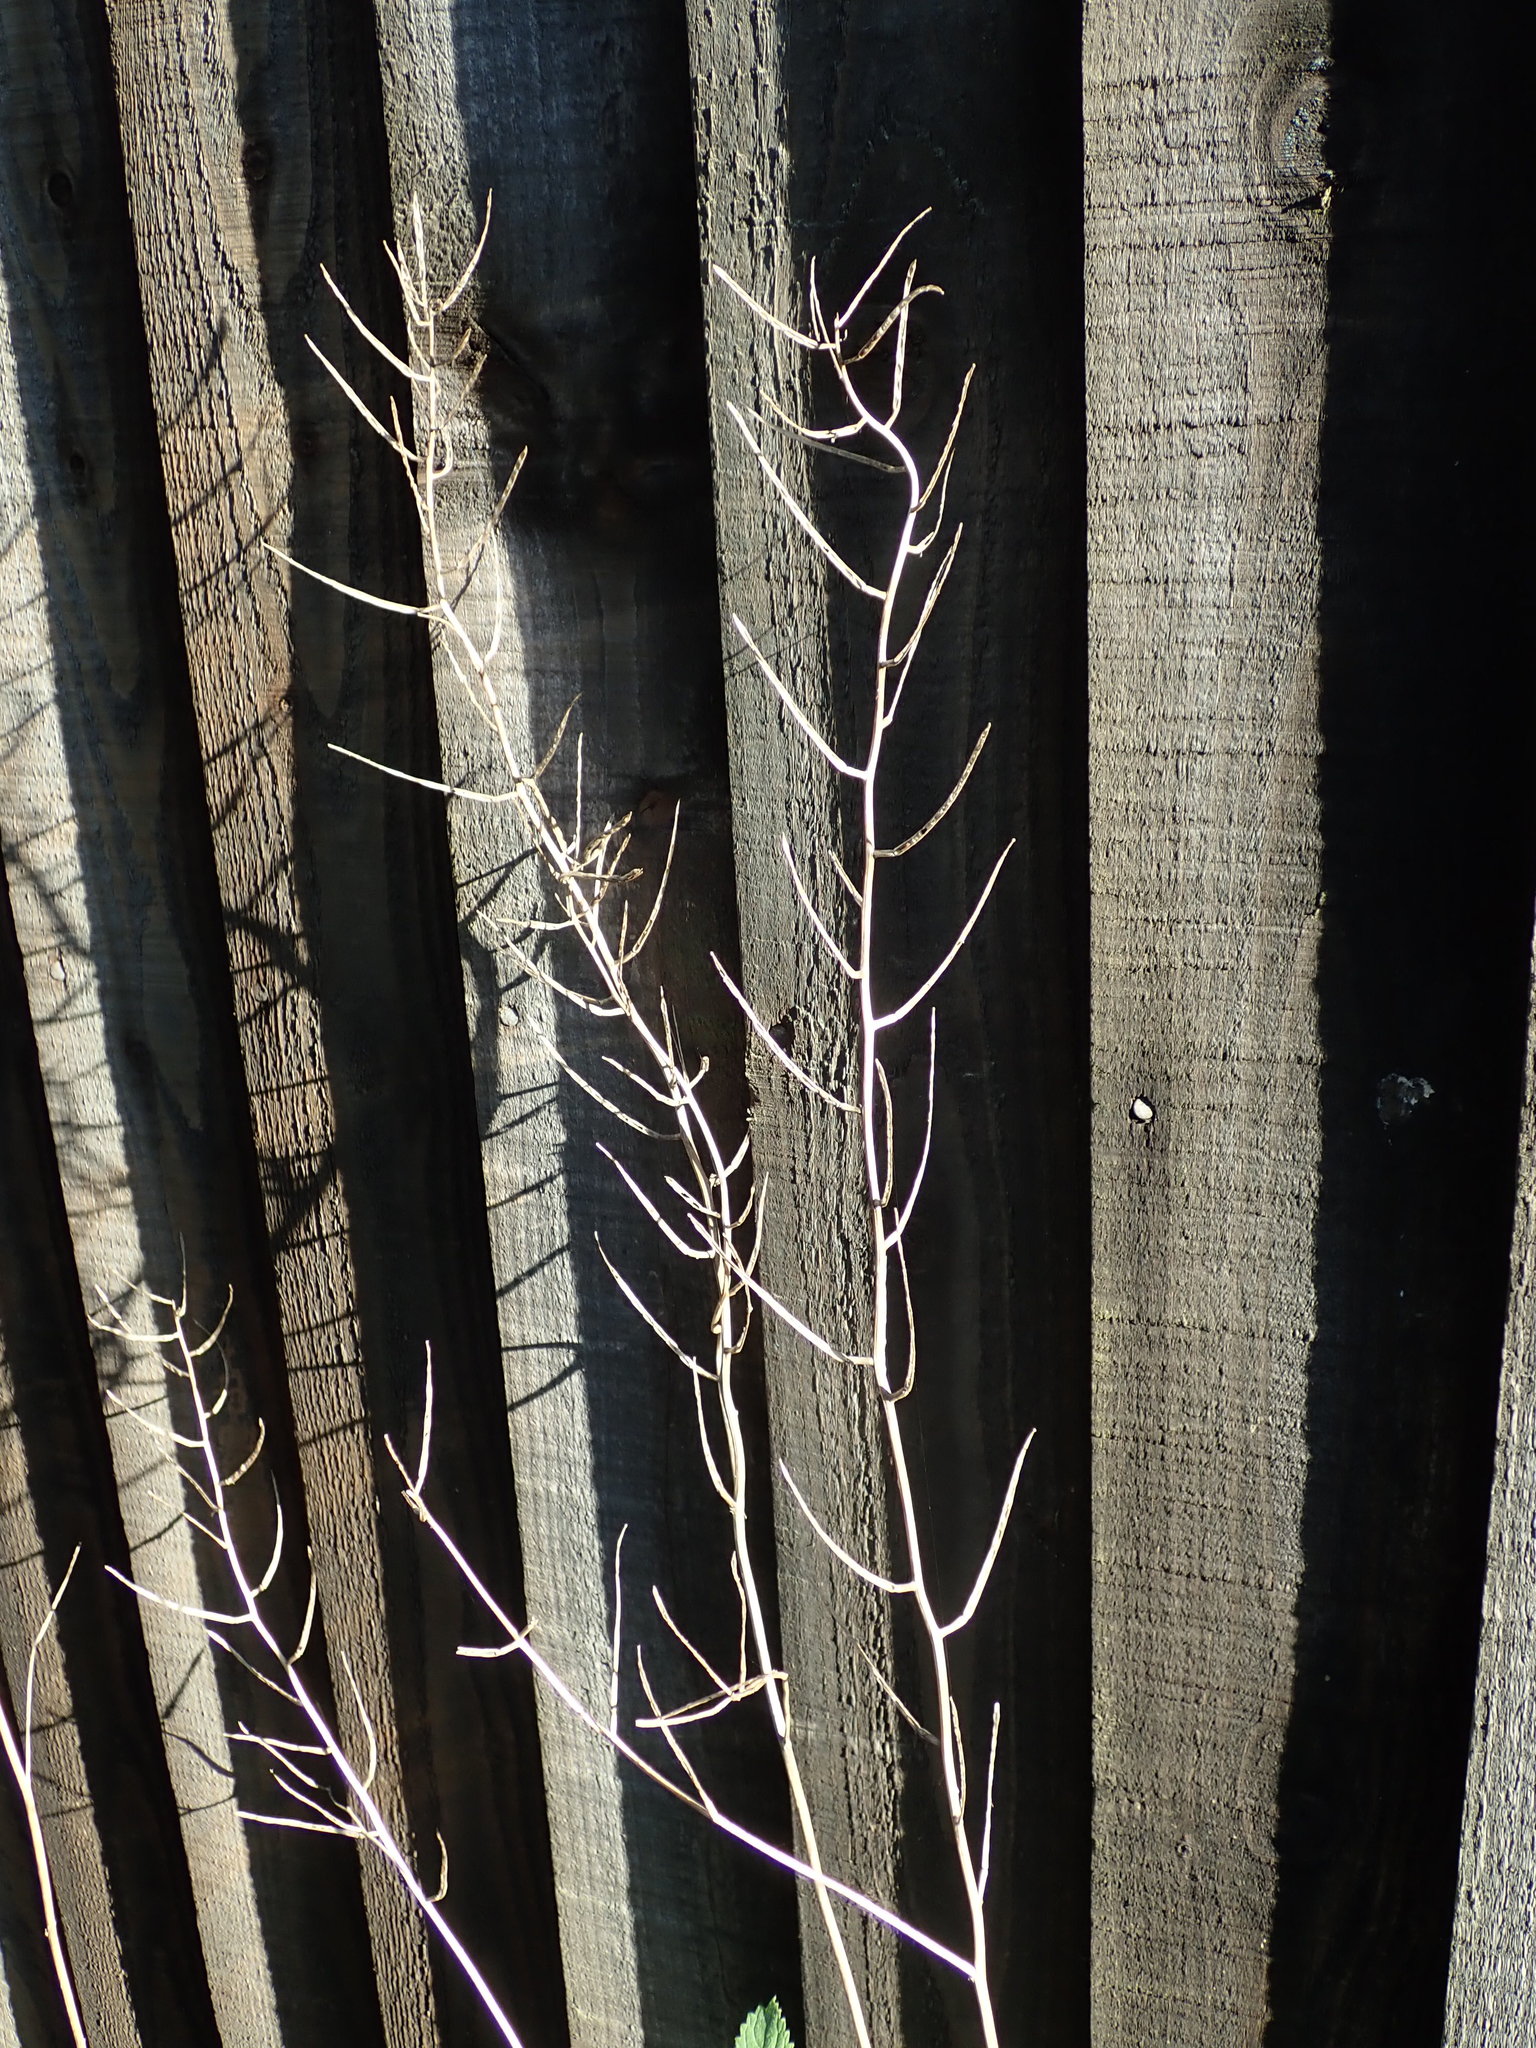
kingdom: Plantae
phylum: Tracheophyta
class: Magnoliopsida
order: Brassicales
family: Brassicaceae
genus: Alliaria
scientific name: Alliaria petiolata
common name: Garlic mustard
